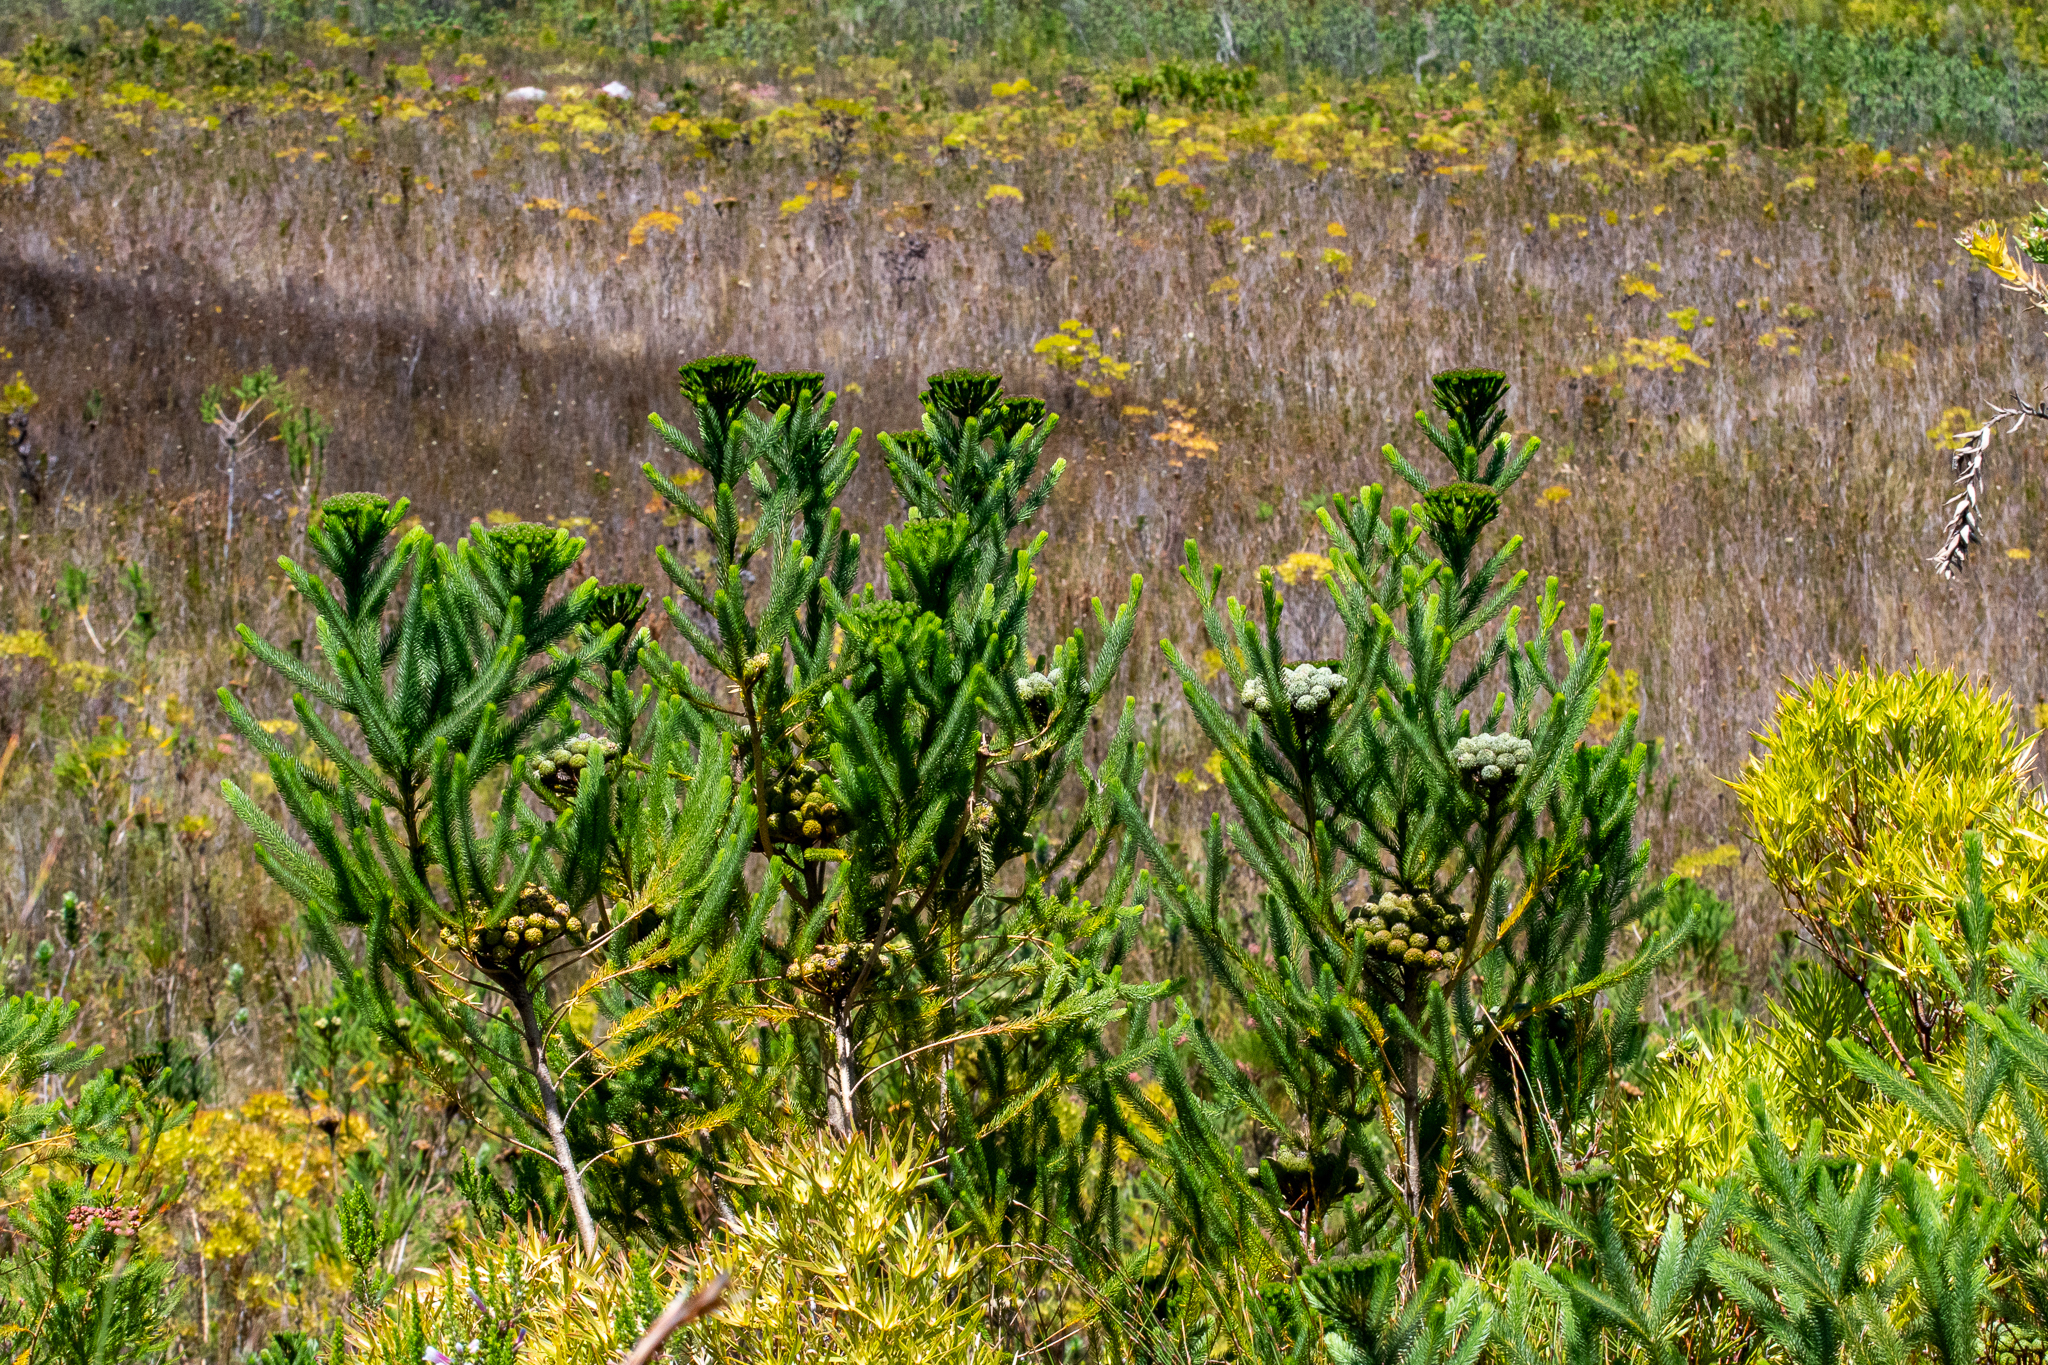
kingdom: Plantae
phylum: Tracheophyta
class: Magnoliopsida
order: Bruniales
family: Bruniaceae
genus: Berzelia
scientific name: Berzelia albiflora
